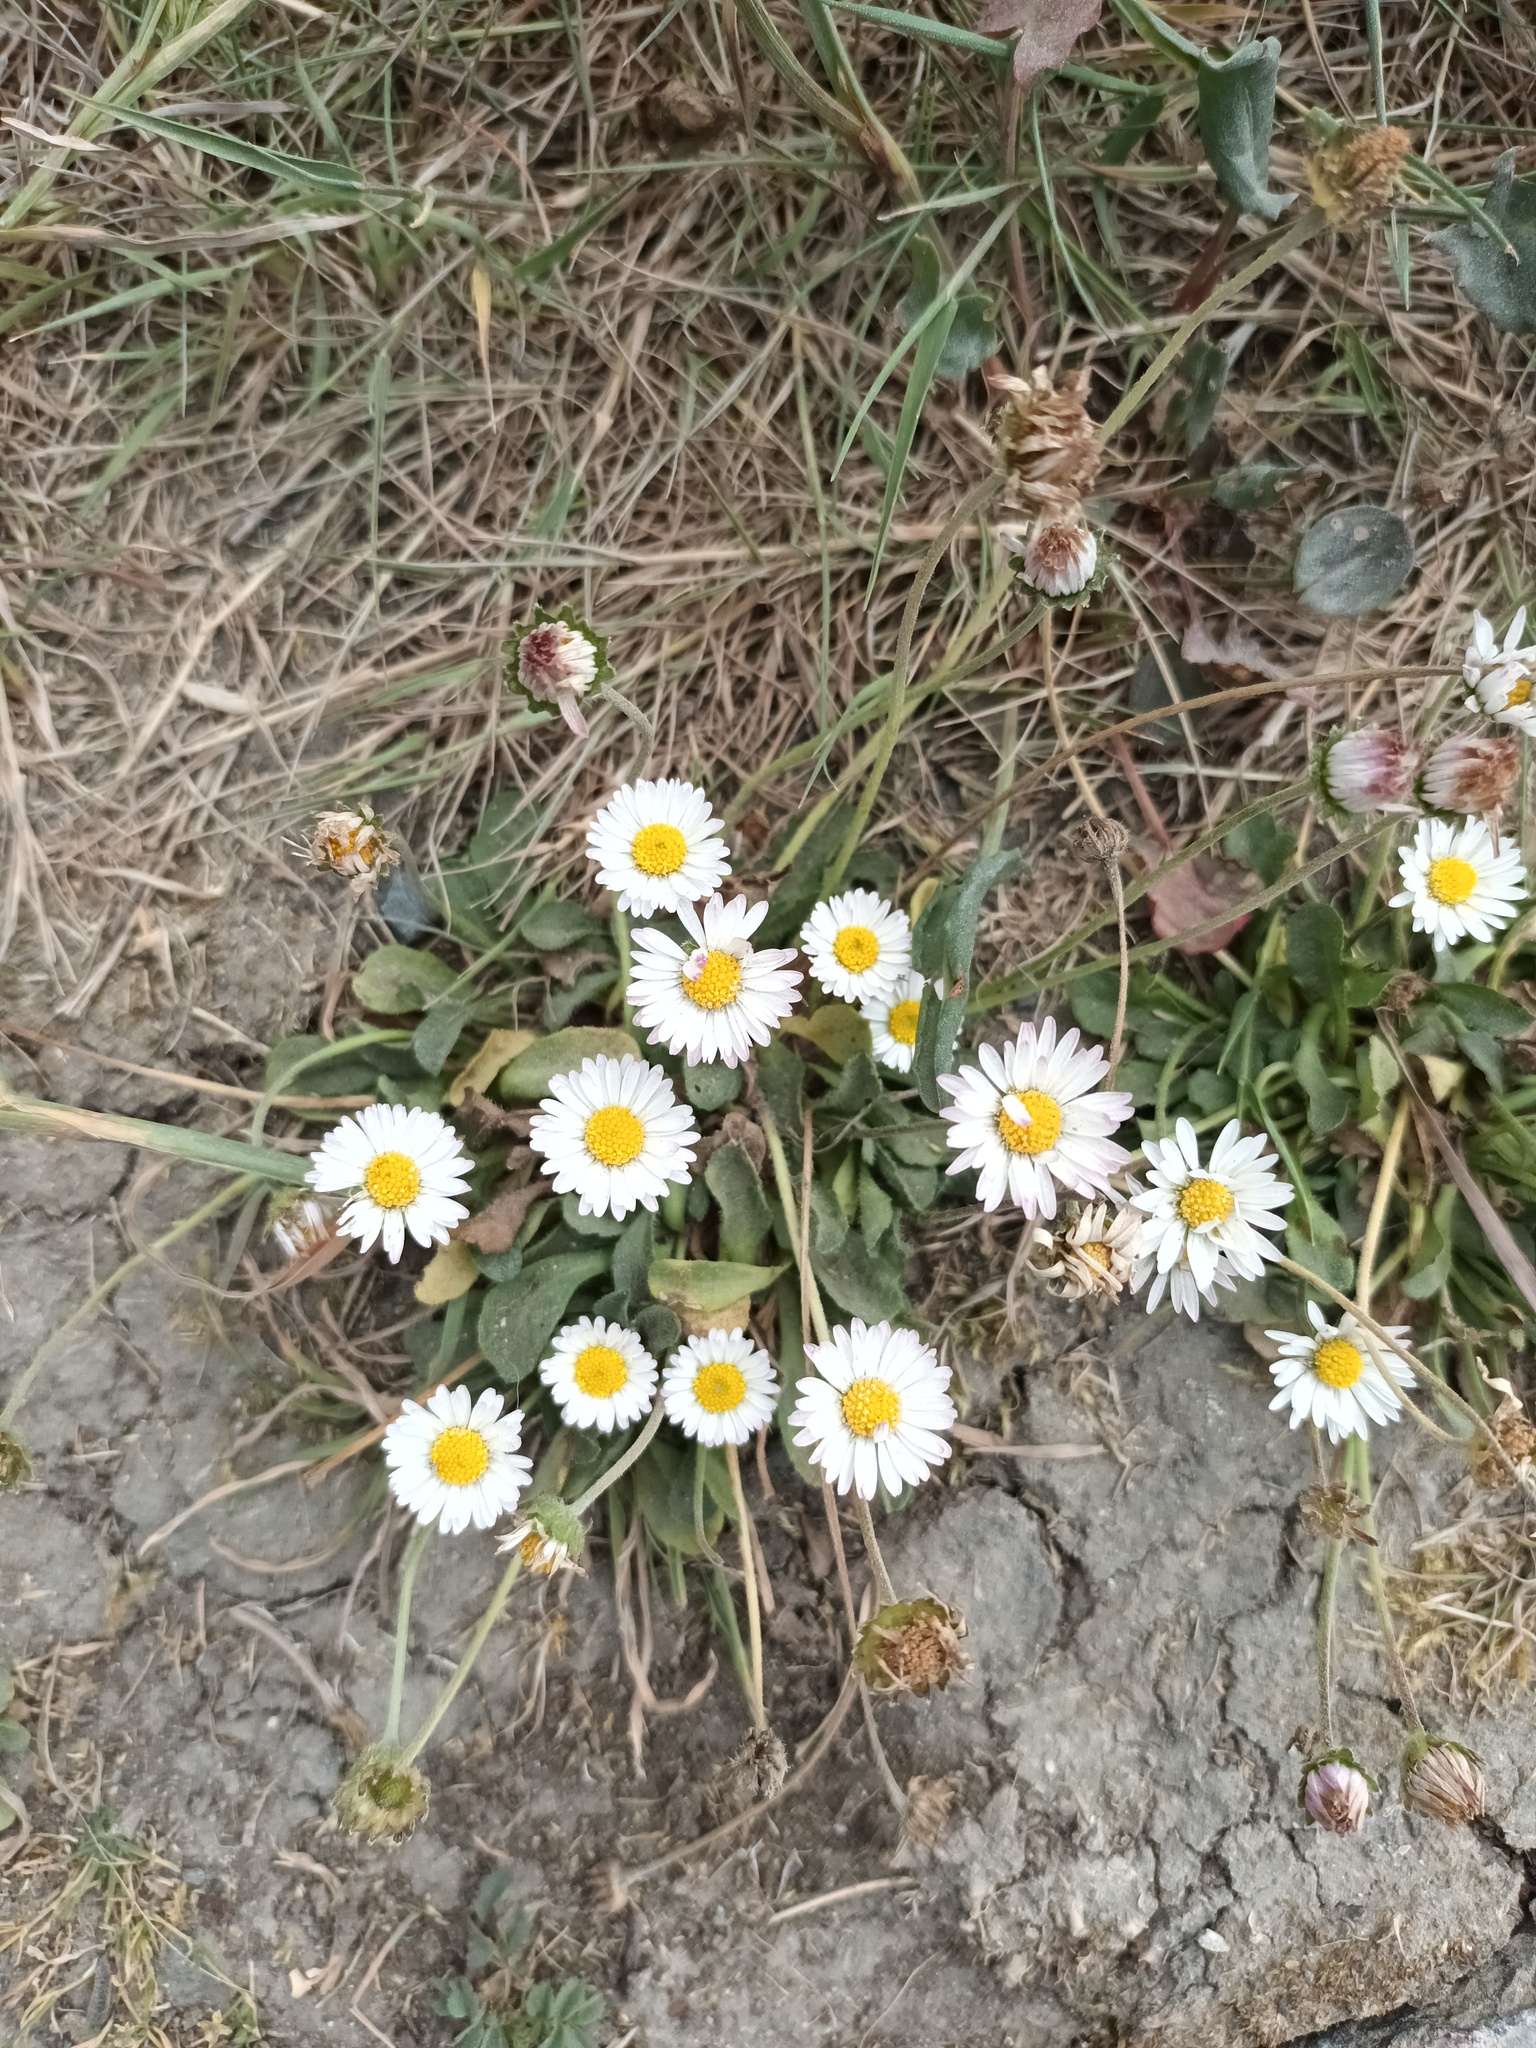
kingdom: Plantae
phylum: Tracheophyta
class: Magnoliopsida
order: Asterales
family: Asteraceae
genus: Bellis
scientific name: Bellis perennis
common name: Lawndaisy
